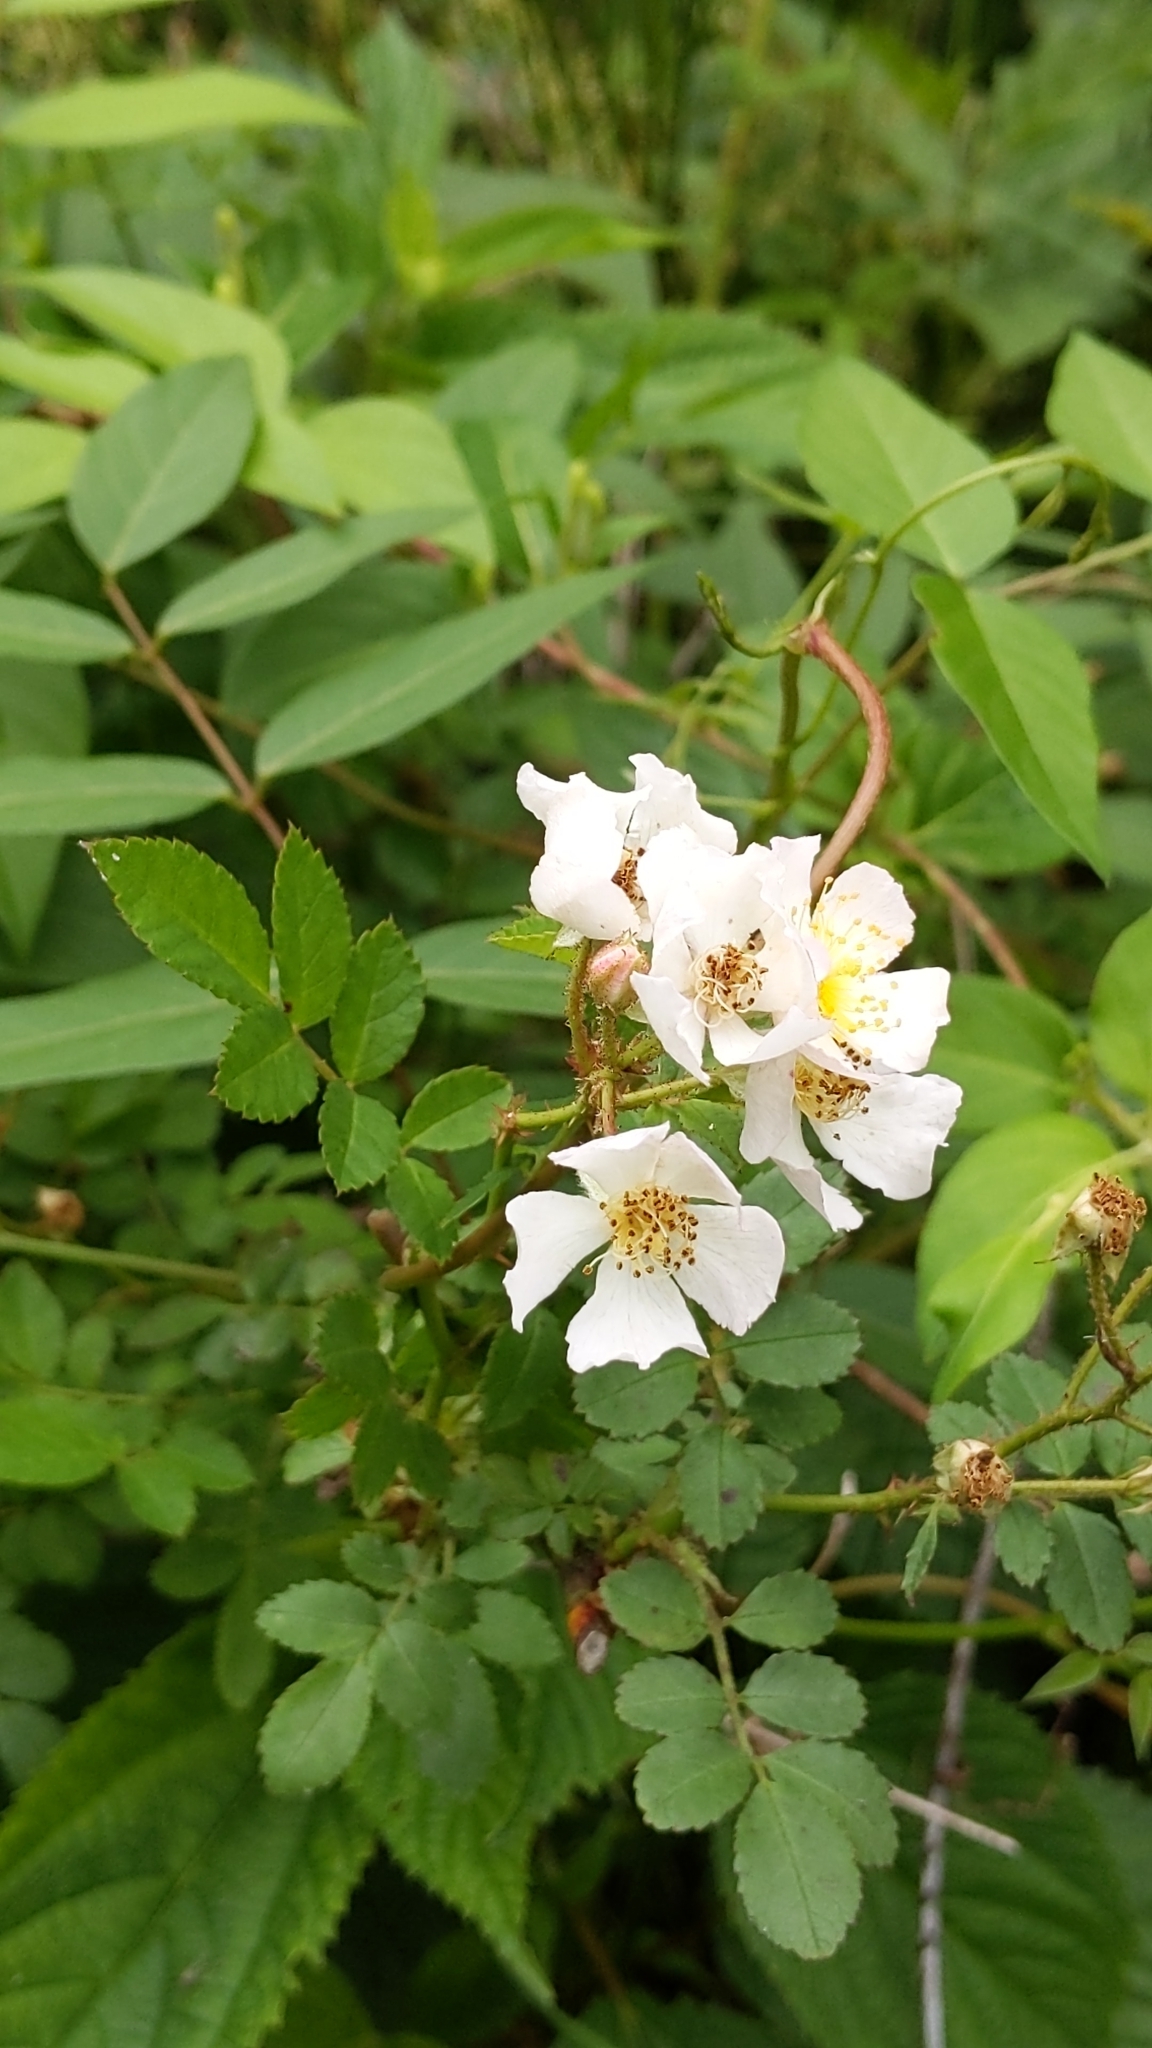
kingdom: Plantae
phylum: Tracheophyta
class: Magnoliopsida
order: Rosales
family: Rosaceae
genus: Rosa
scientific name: Rosa multiflora
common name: Multiflora rose
